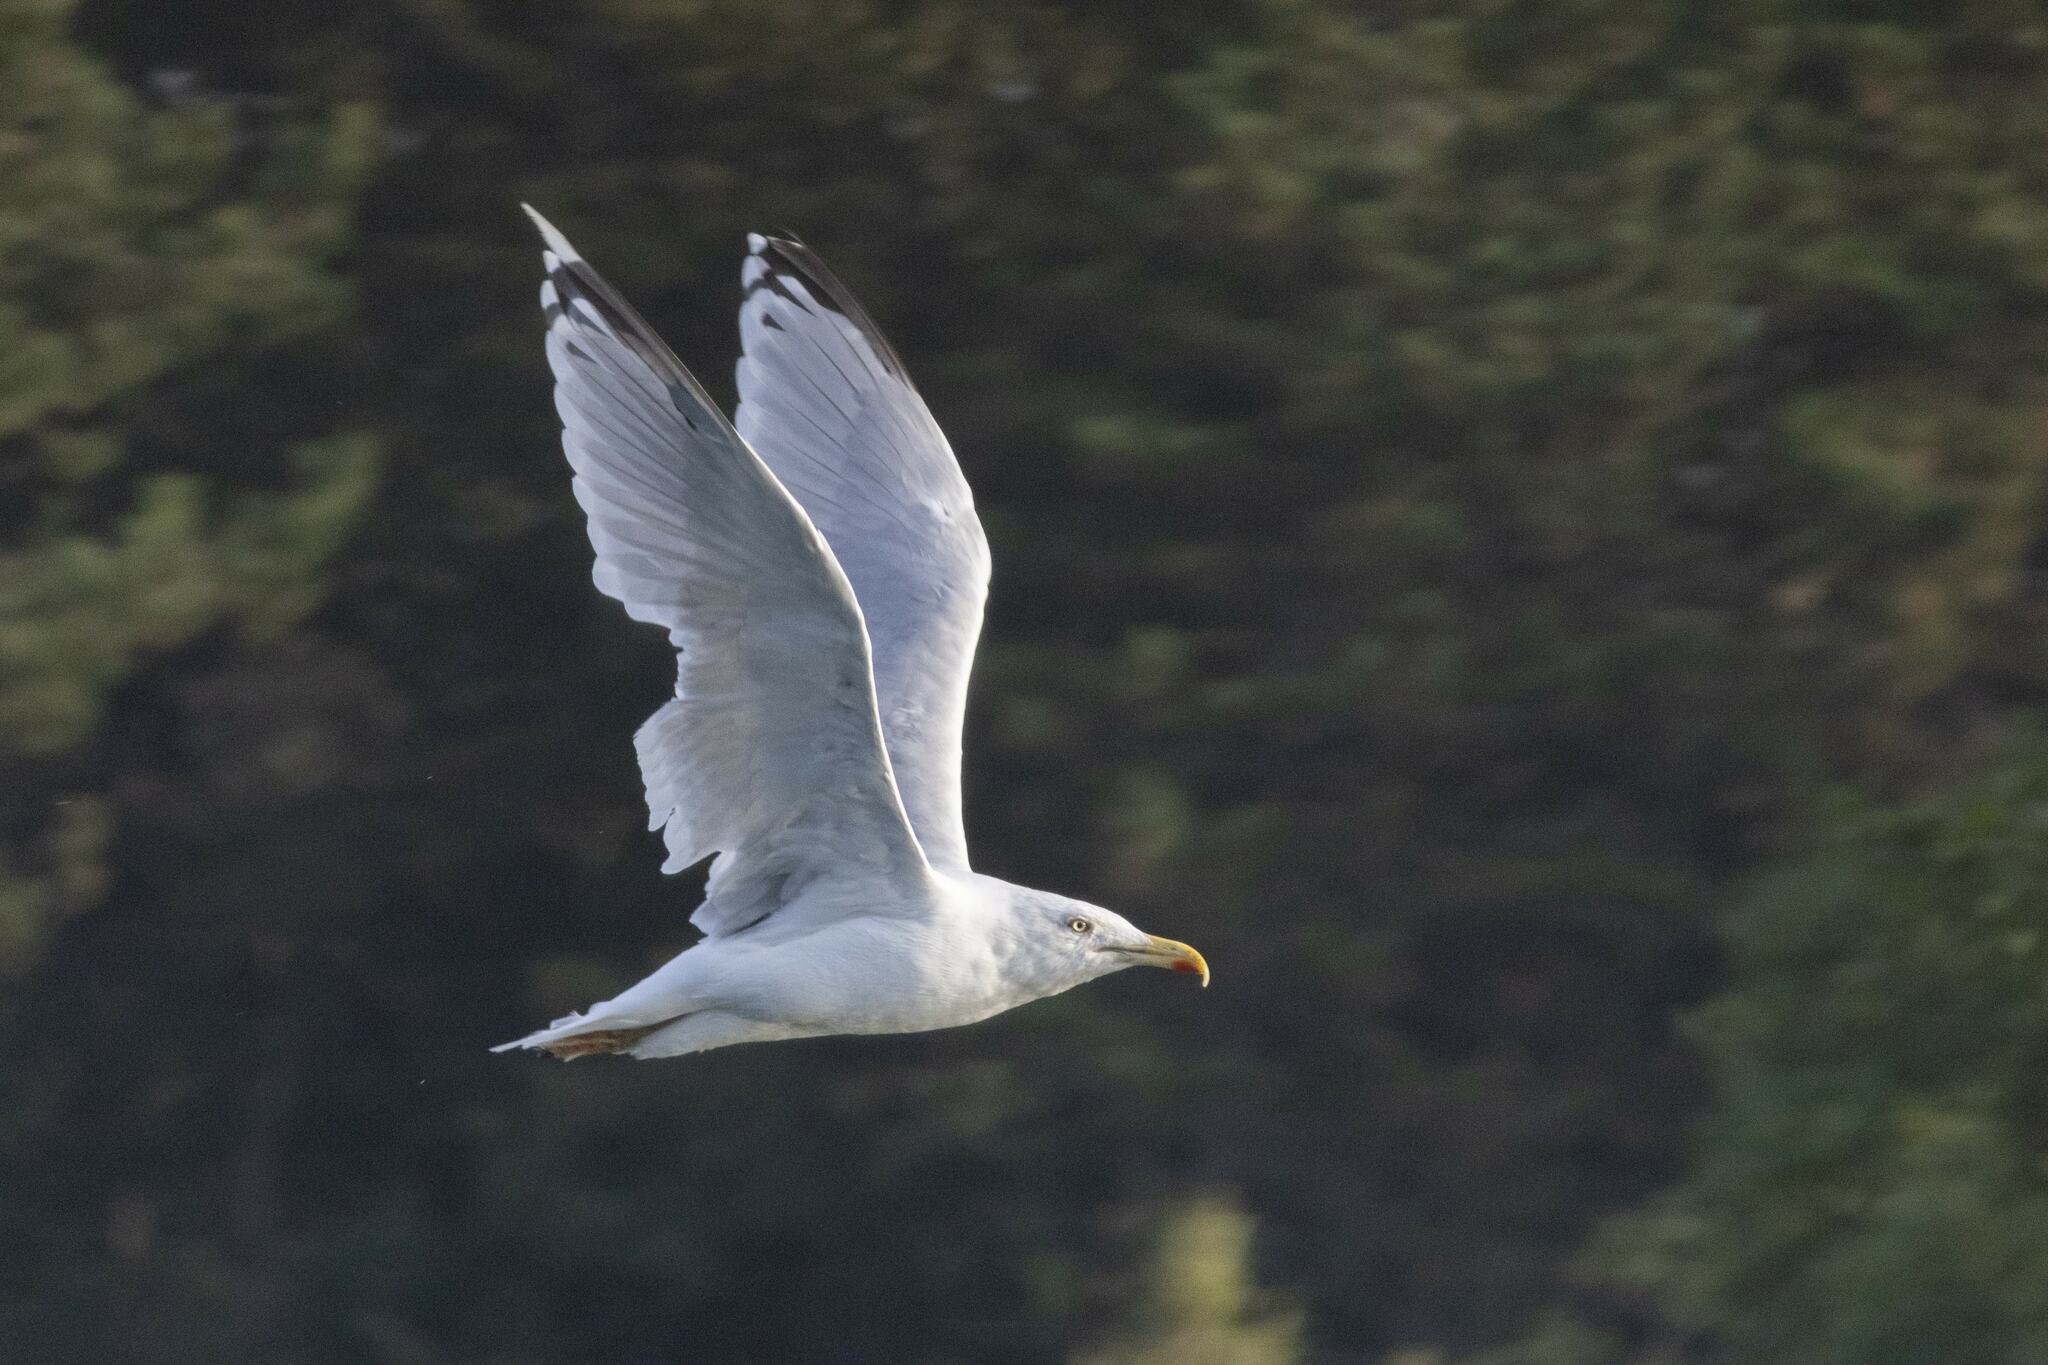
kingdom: Animalia
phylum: Chordata
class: Aves
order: Charadriiformes
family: Laridae
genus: Larus
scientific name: Larus argentatus
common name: Herring gull
